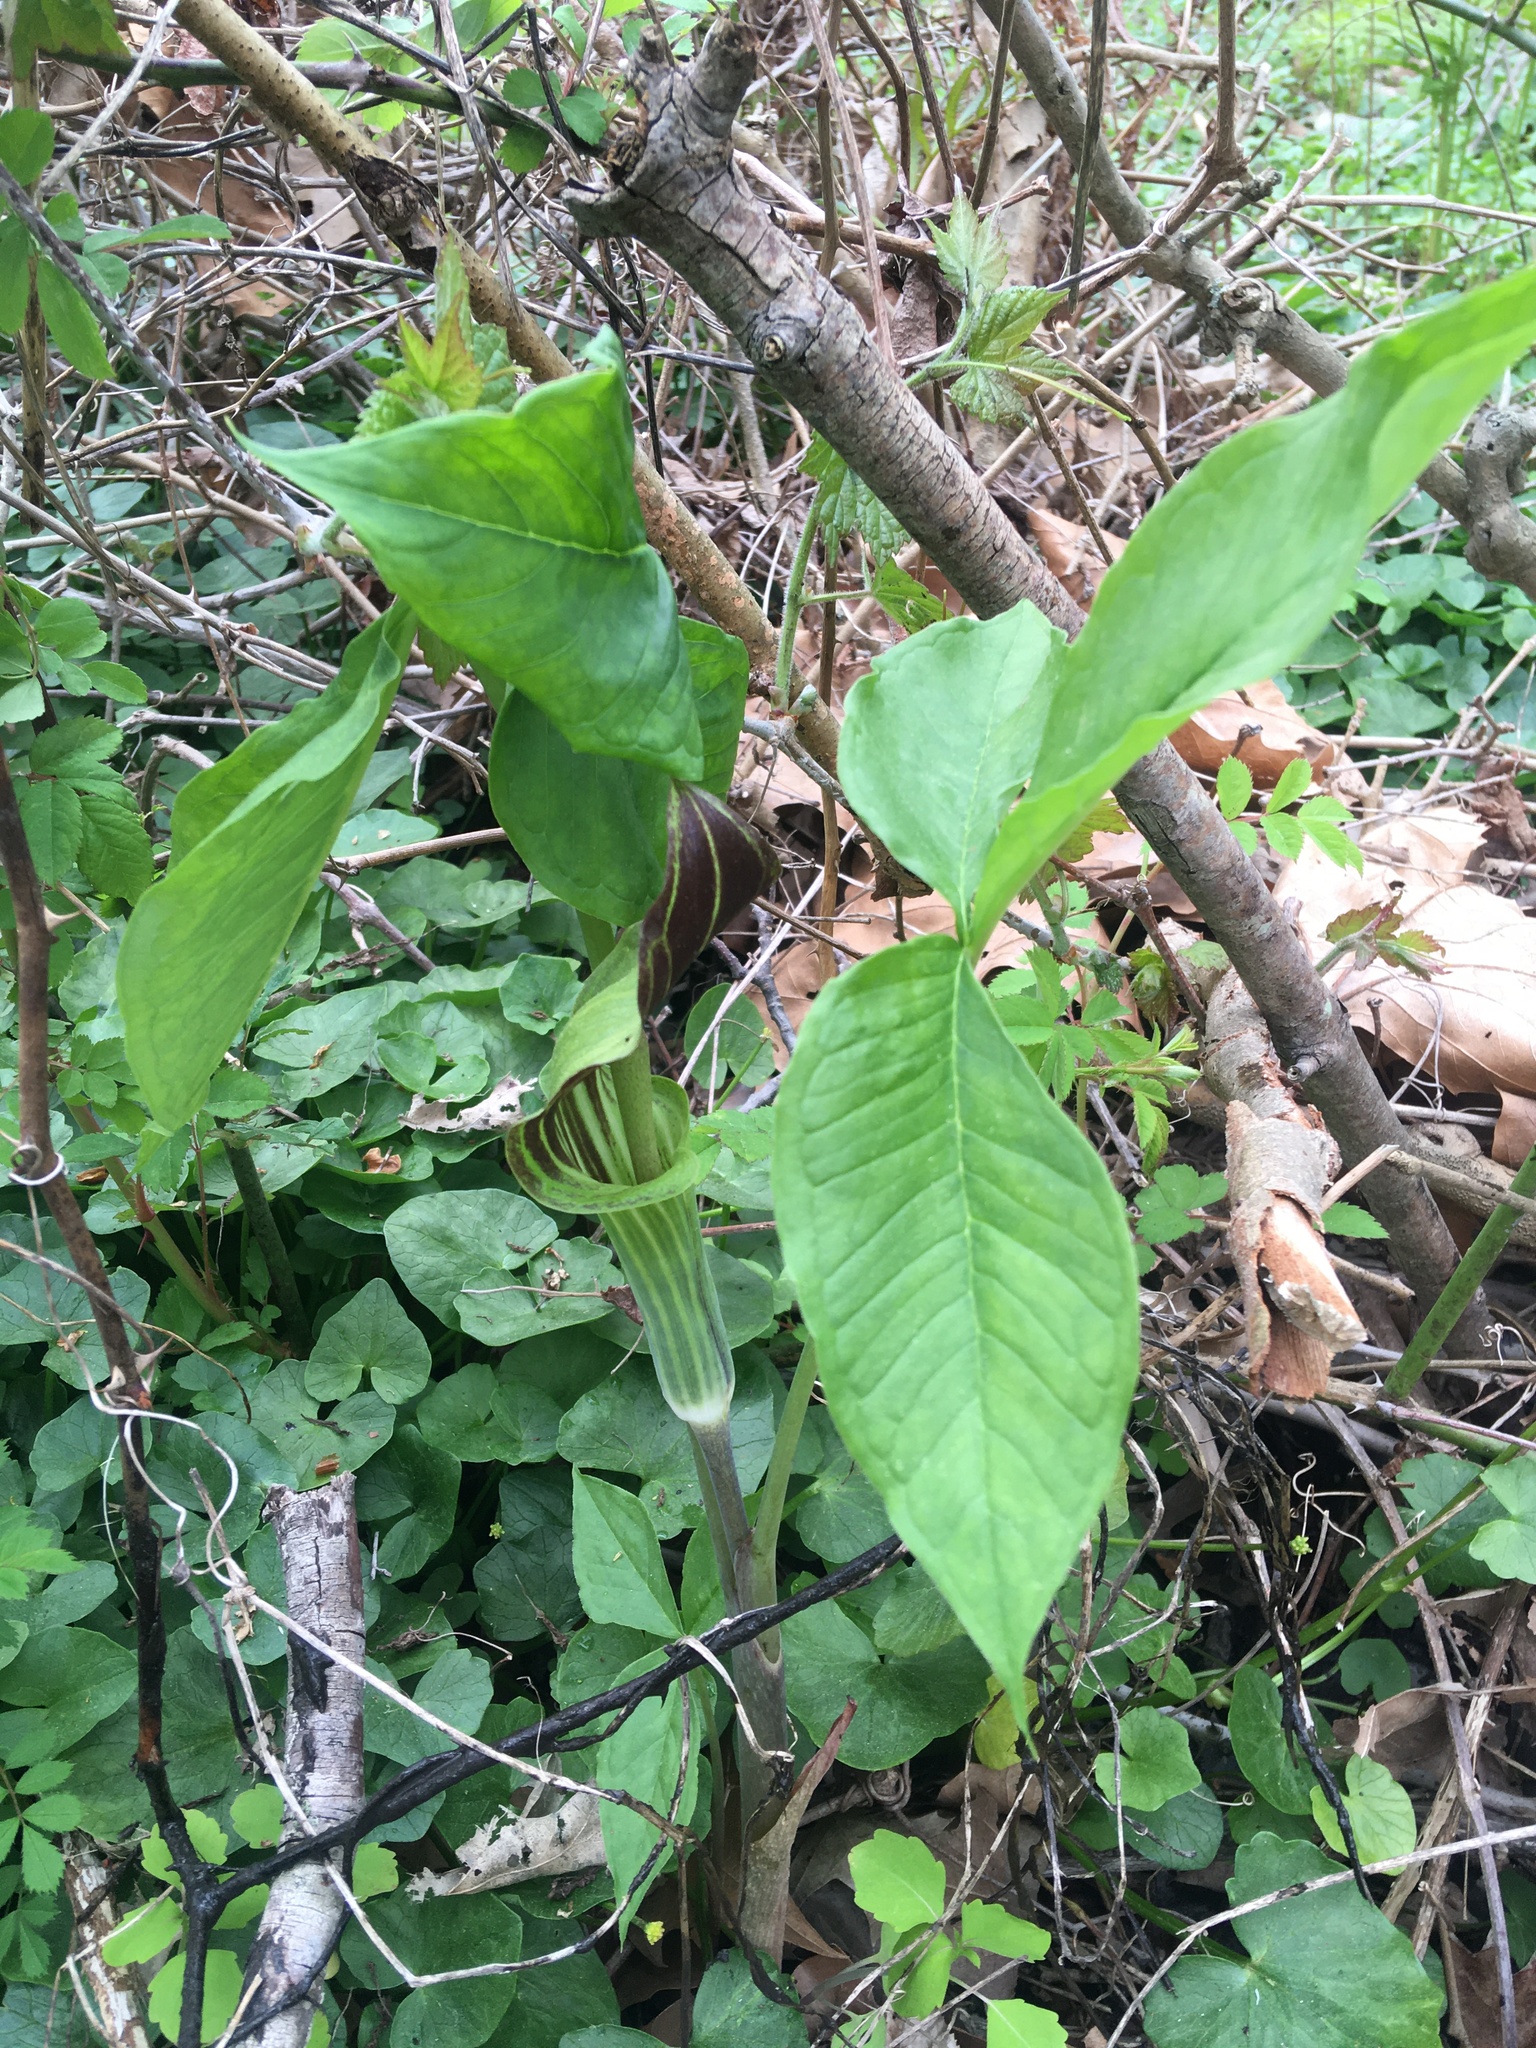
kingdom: Plantae
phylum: Tracheophyta
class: Liliopsida
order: Alismatales
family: Araceae
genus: Arisaema
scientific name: Arisaema triphyllum
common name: Jack-in-the-pulpit
